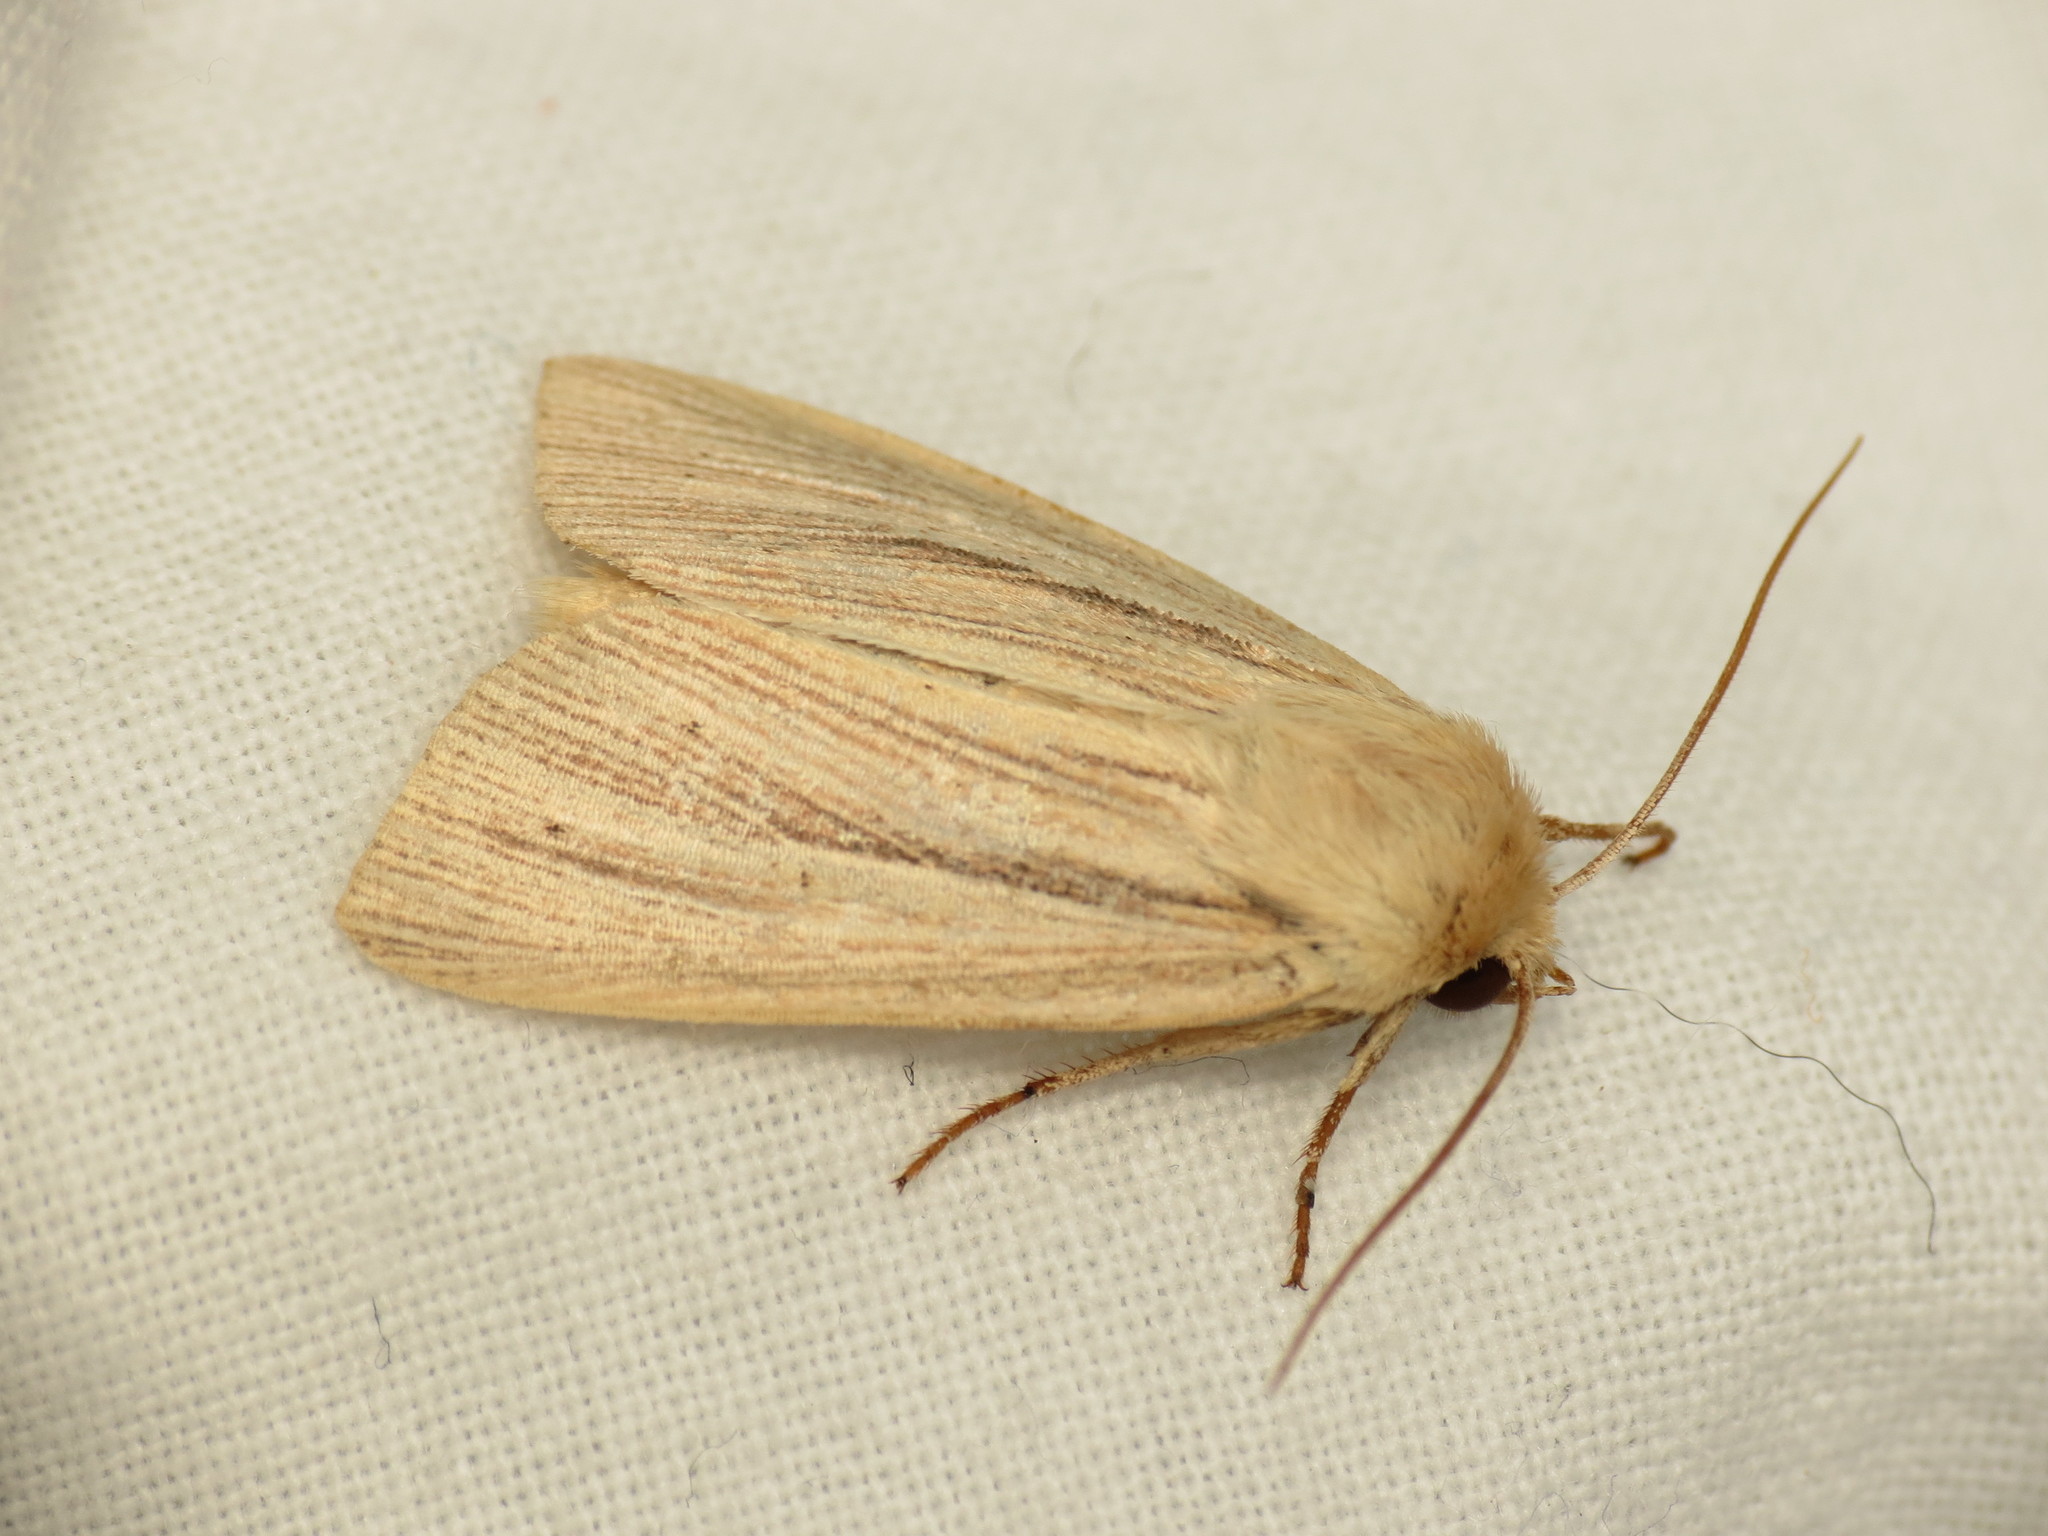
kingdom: Animalia
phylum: Arthropoda
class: Insecta
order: Lepidoptera
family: Noctuidae
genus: Mythimna
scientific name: Mythimna impura
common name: Smoky wainscot
